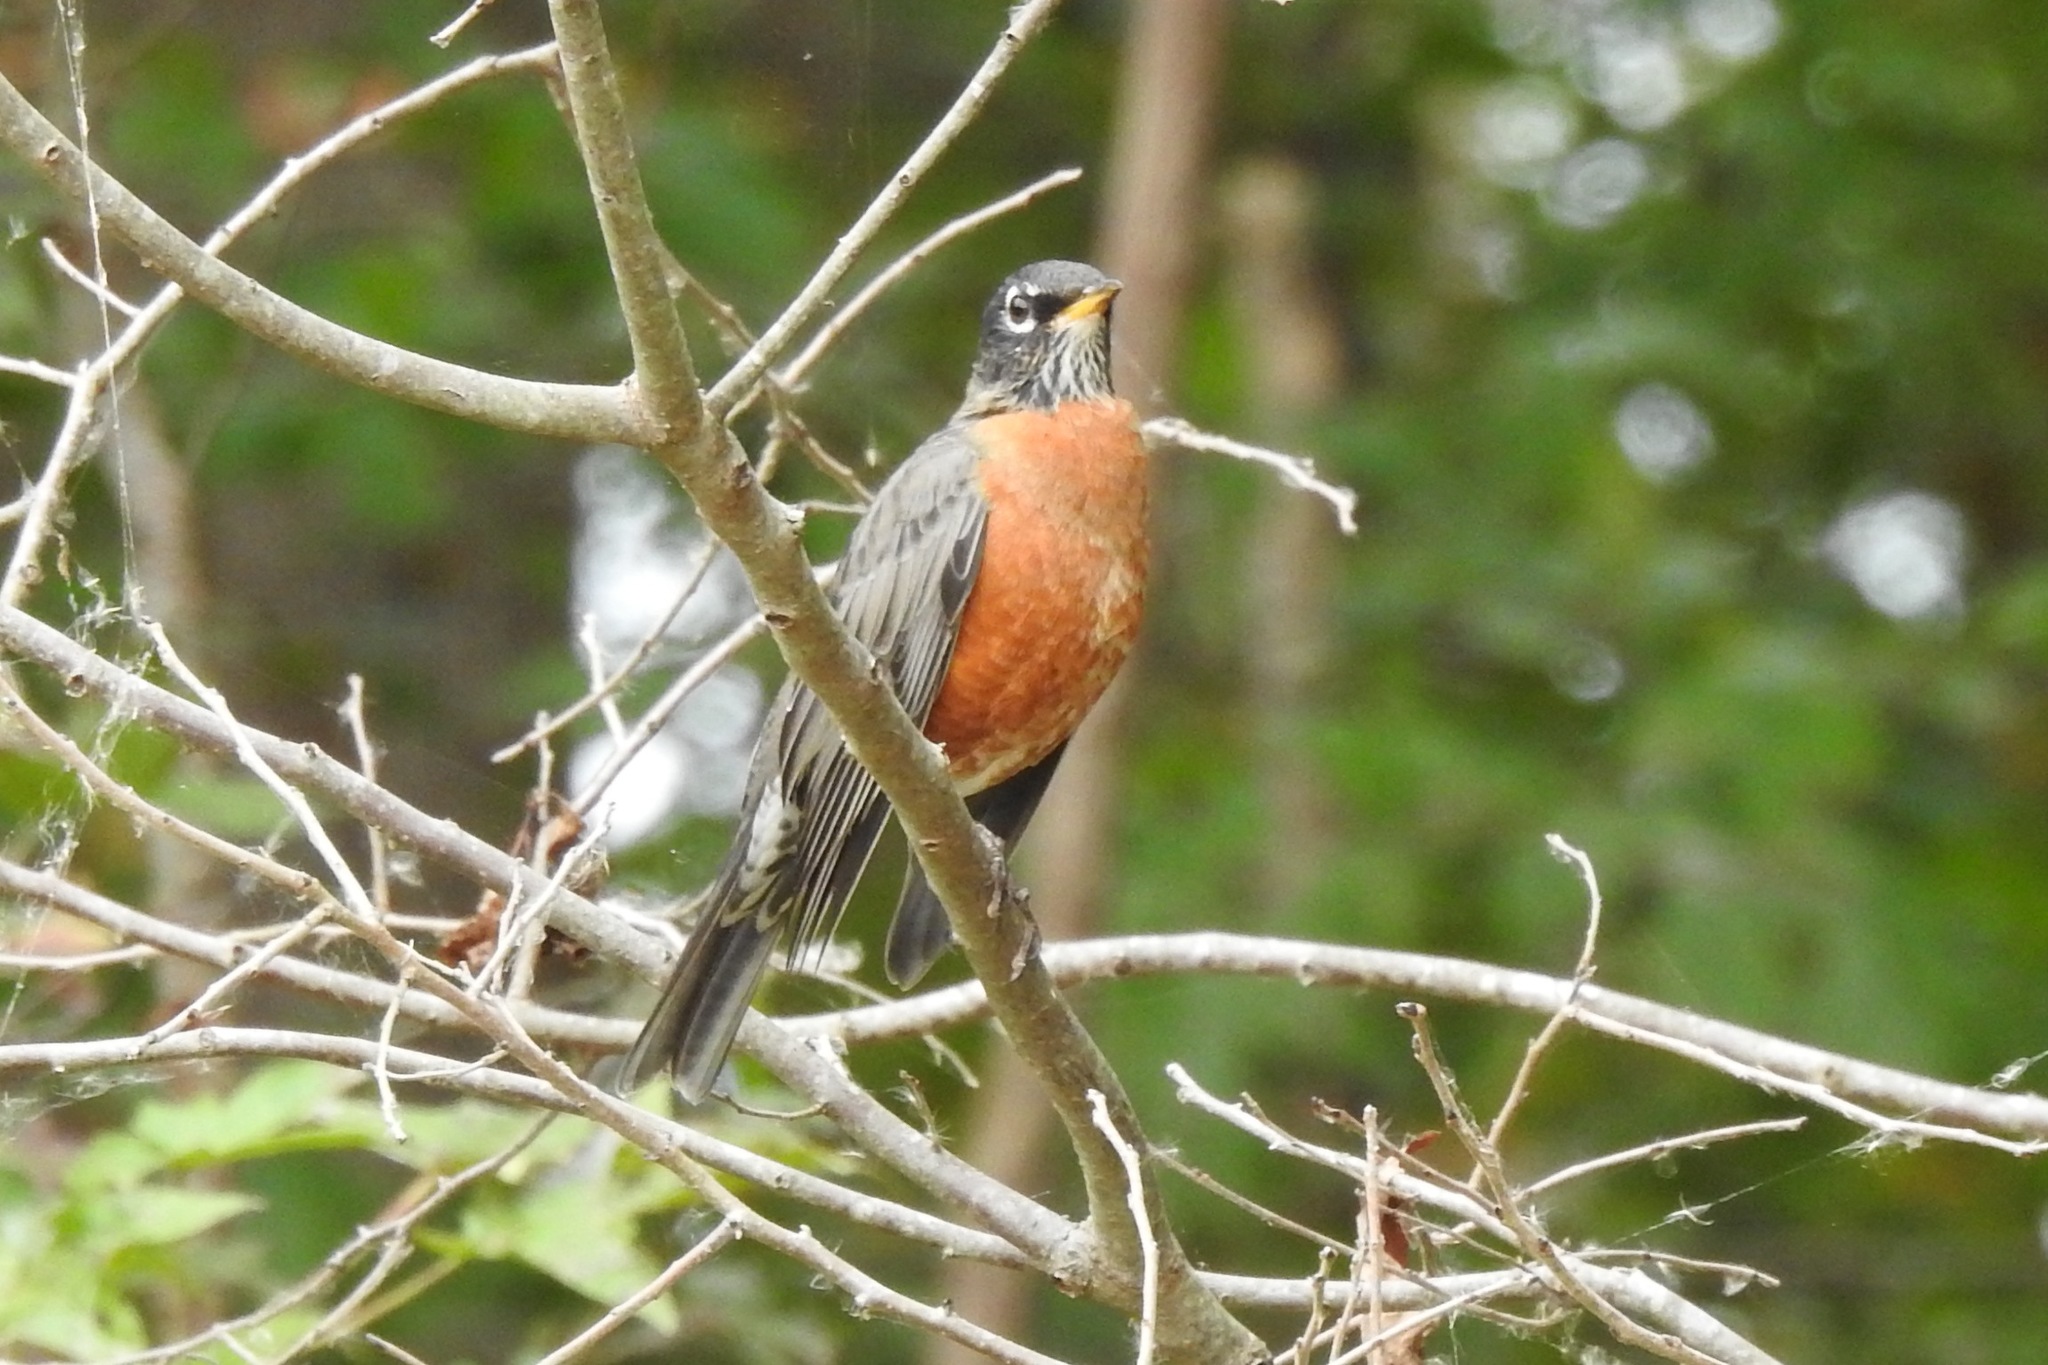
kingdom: Animalia
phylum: Chordata
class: Aves
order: Passeriformes
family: Turdidae
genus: Turdus
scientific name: Turdus migratorius
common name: American robin
